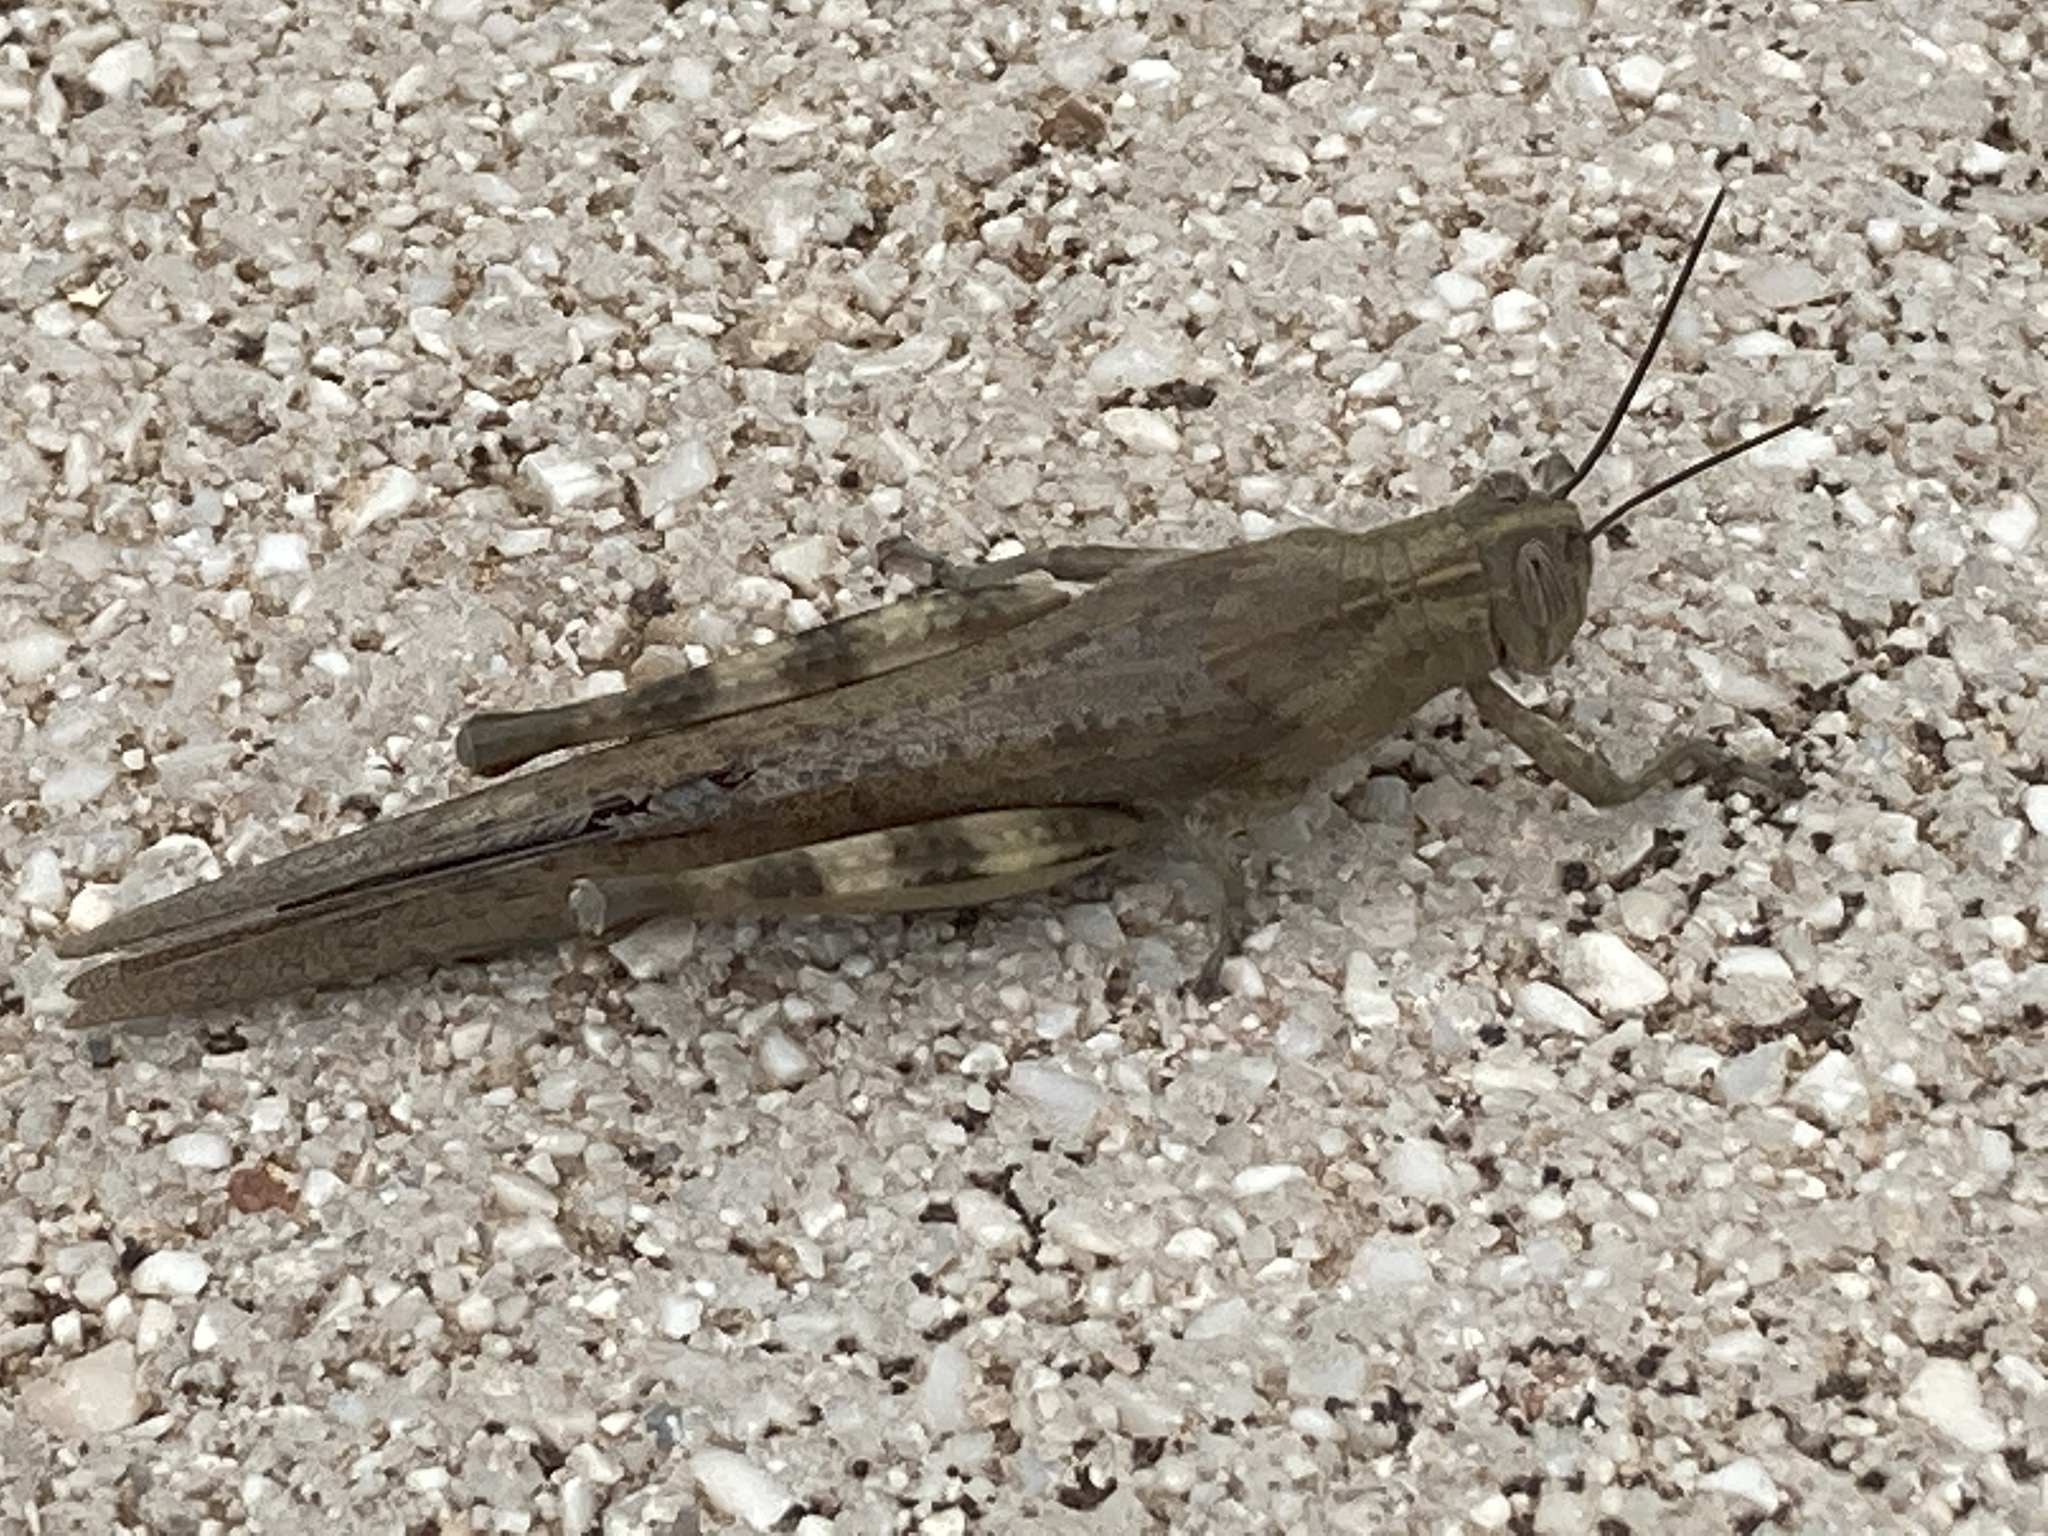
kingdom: Animalia
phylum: Arthropoda
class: Insecta
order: Orthoptera
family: Acrididae
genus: Anacridium
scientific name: Anacridium aegyptium
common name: Egyptian grasshopper
